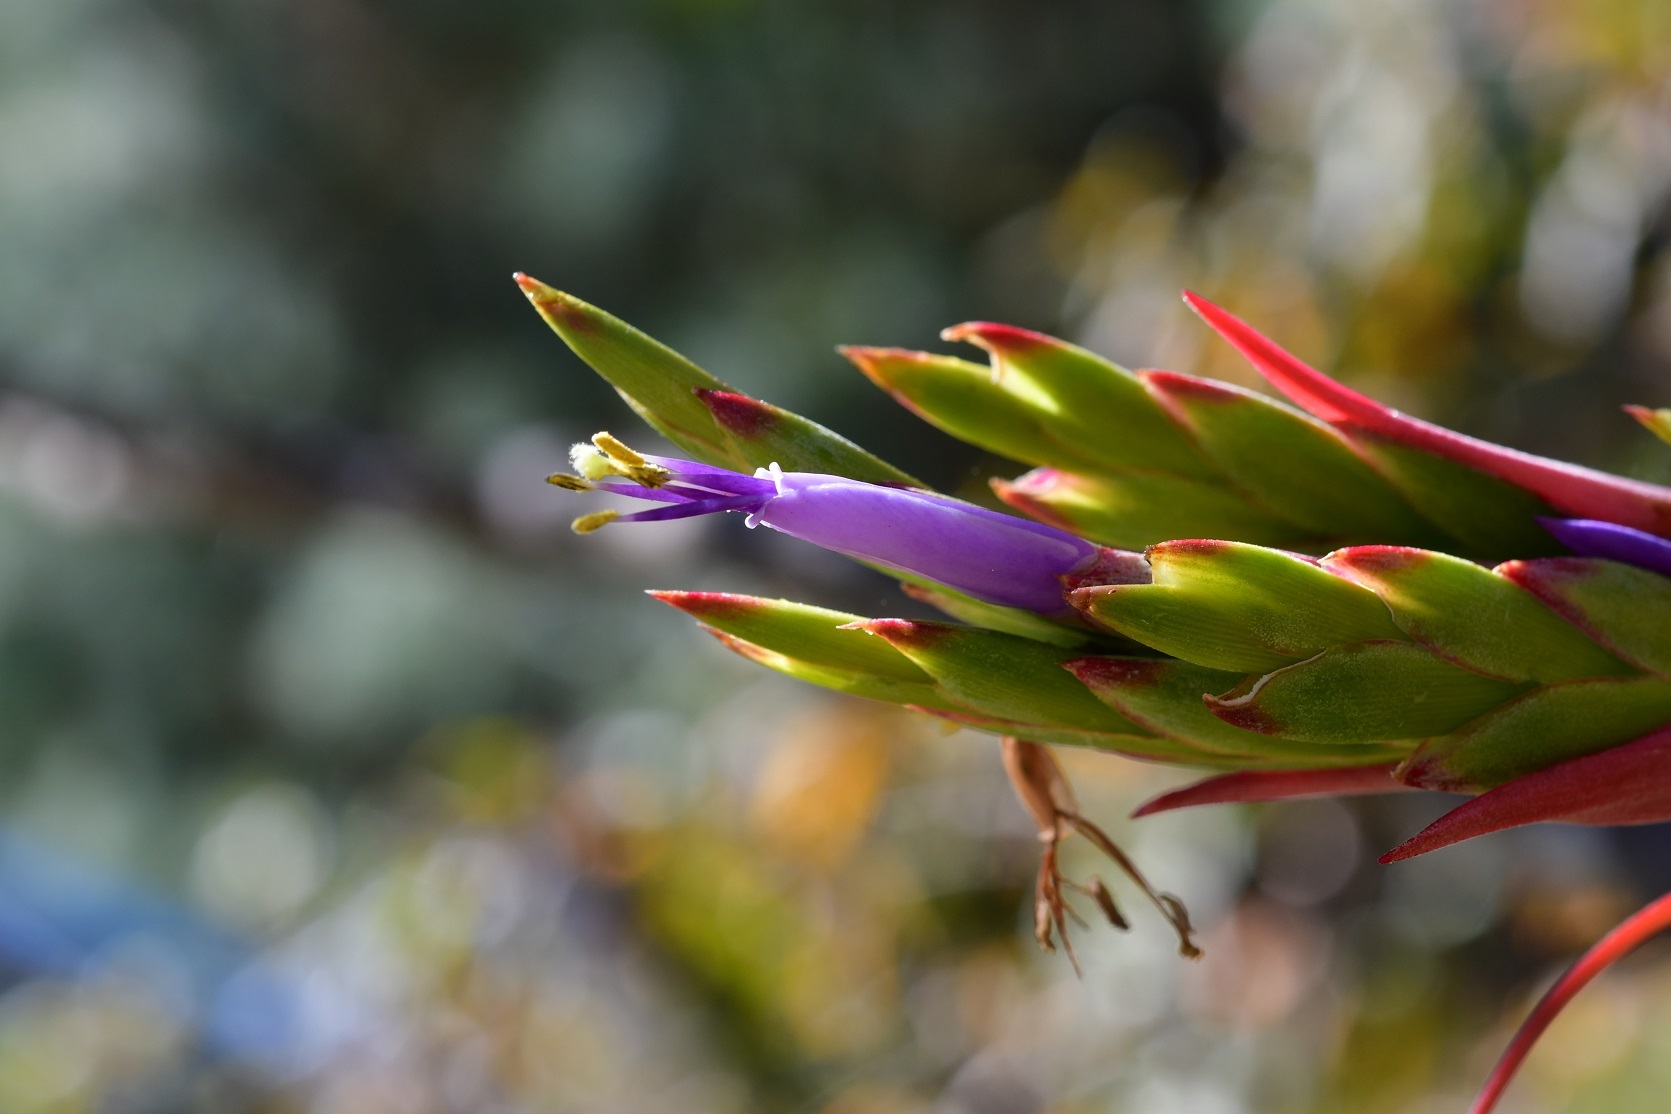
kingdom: Plantae
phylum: Tracheophyta
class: Liliopsida
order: Poales
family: Bromeliaceae
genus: Tillandsia
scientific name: Tillandsia belloensis
